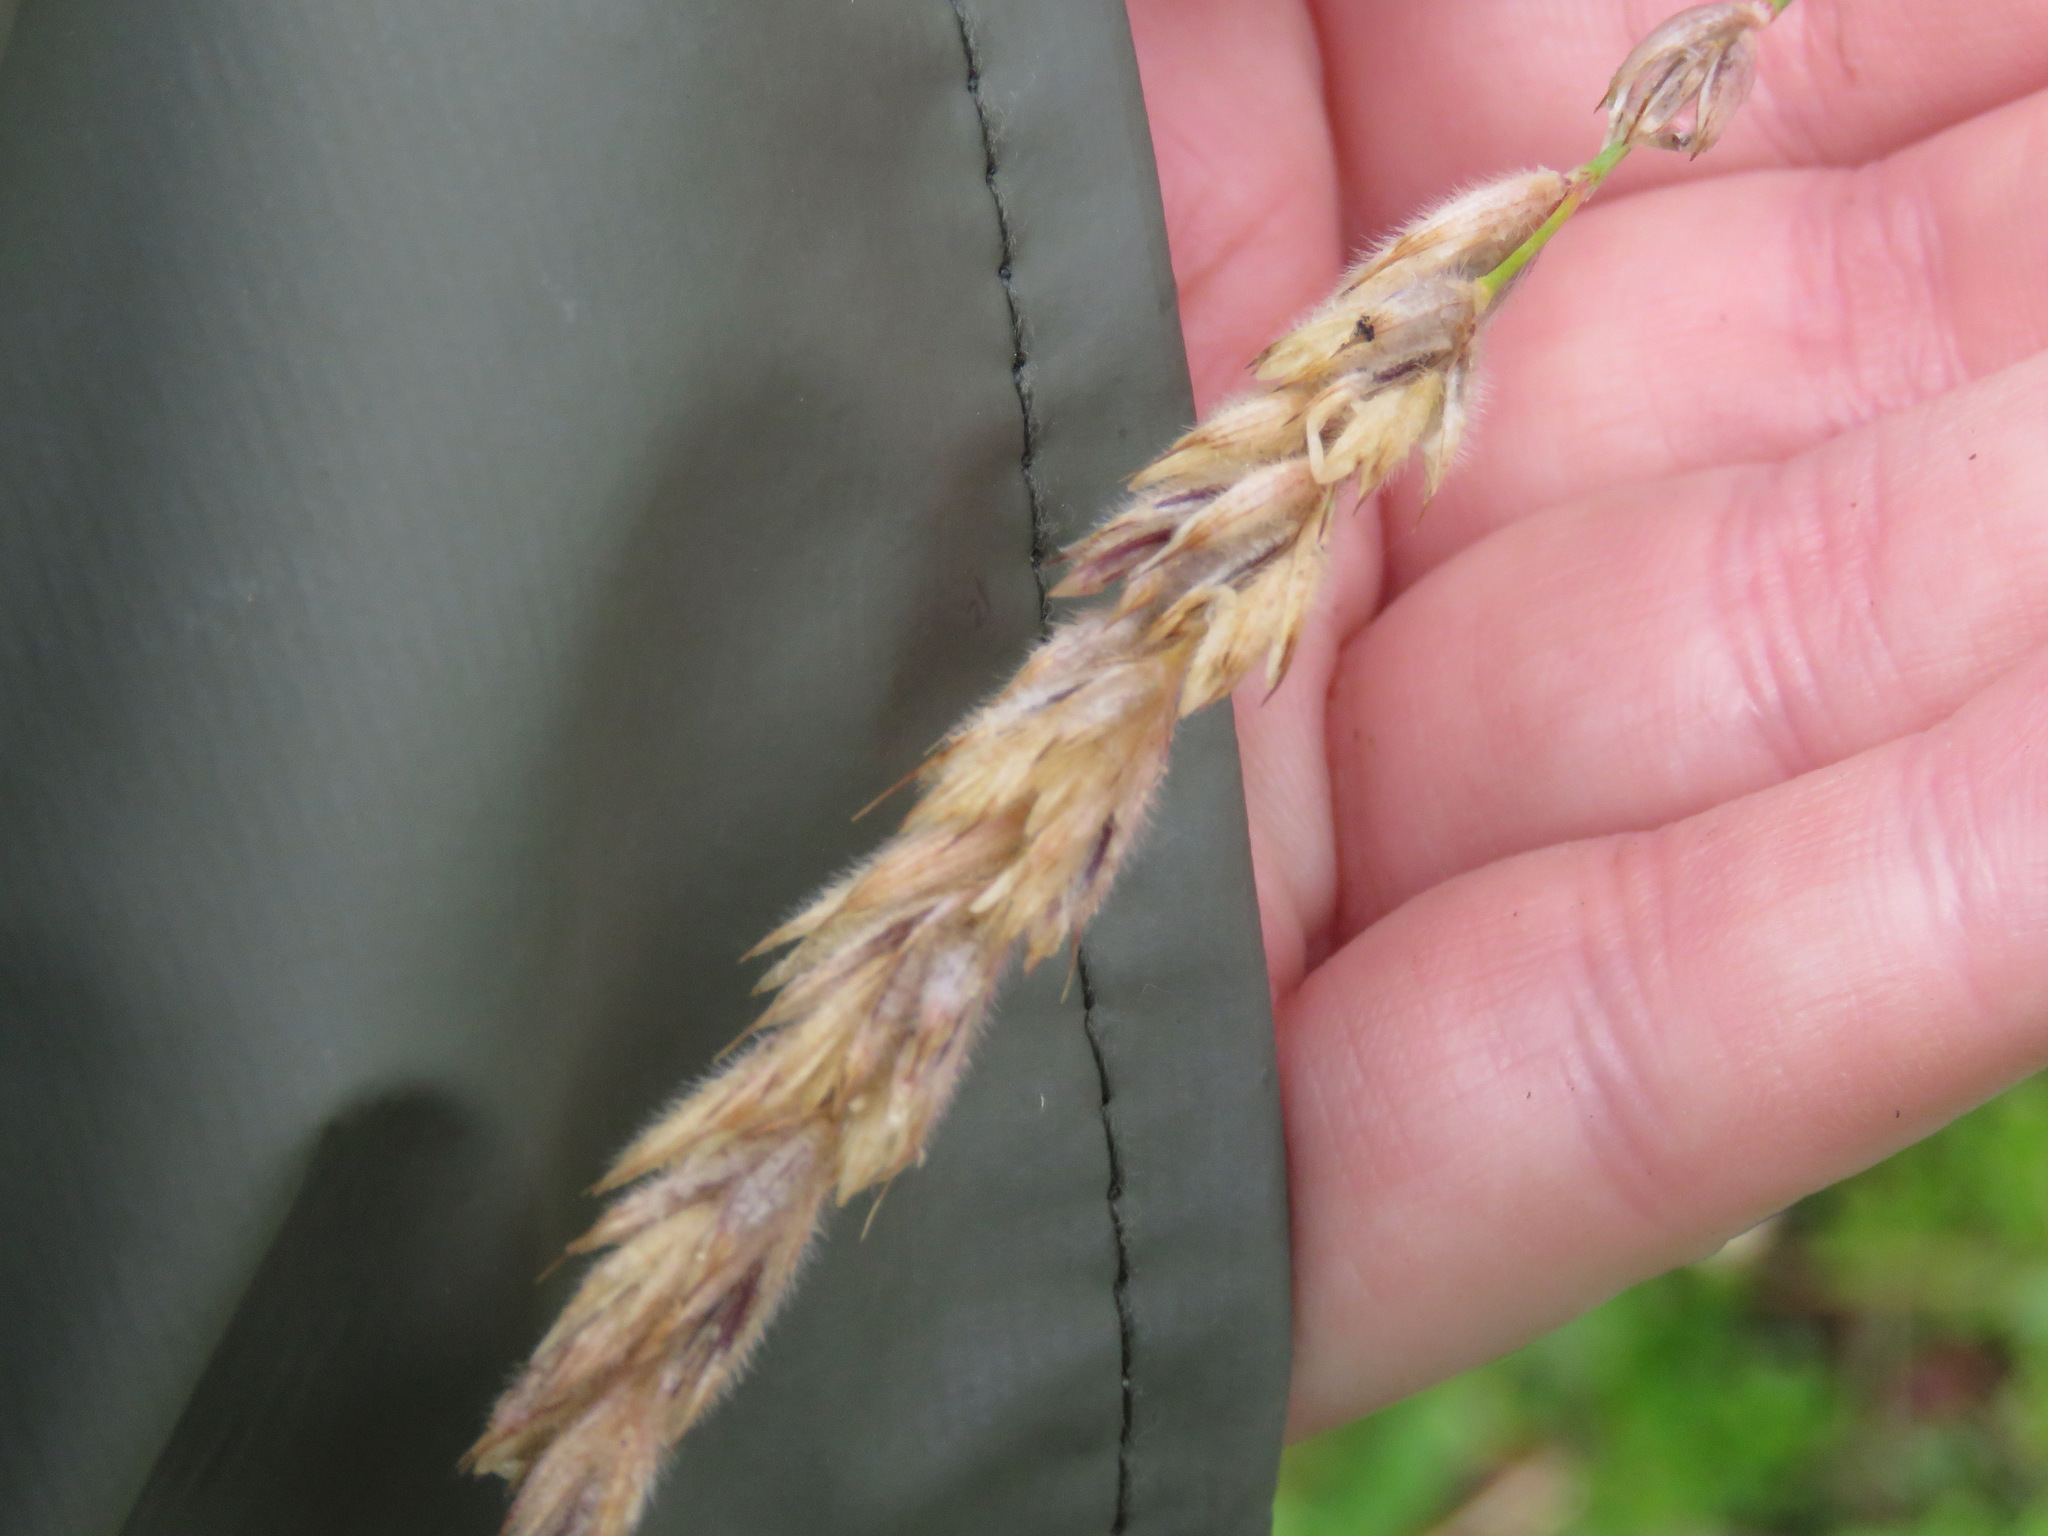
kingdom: Plantae
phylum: Tracheophyta
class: Liliopsida
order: Poales
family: Poaceae
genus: Leymus
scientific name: Leymus innovatus
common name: Boreal wild rye
